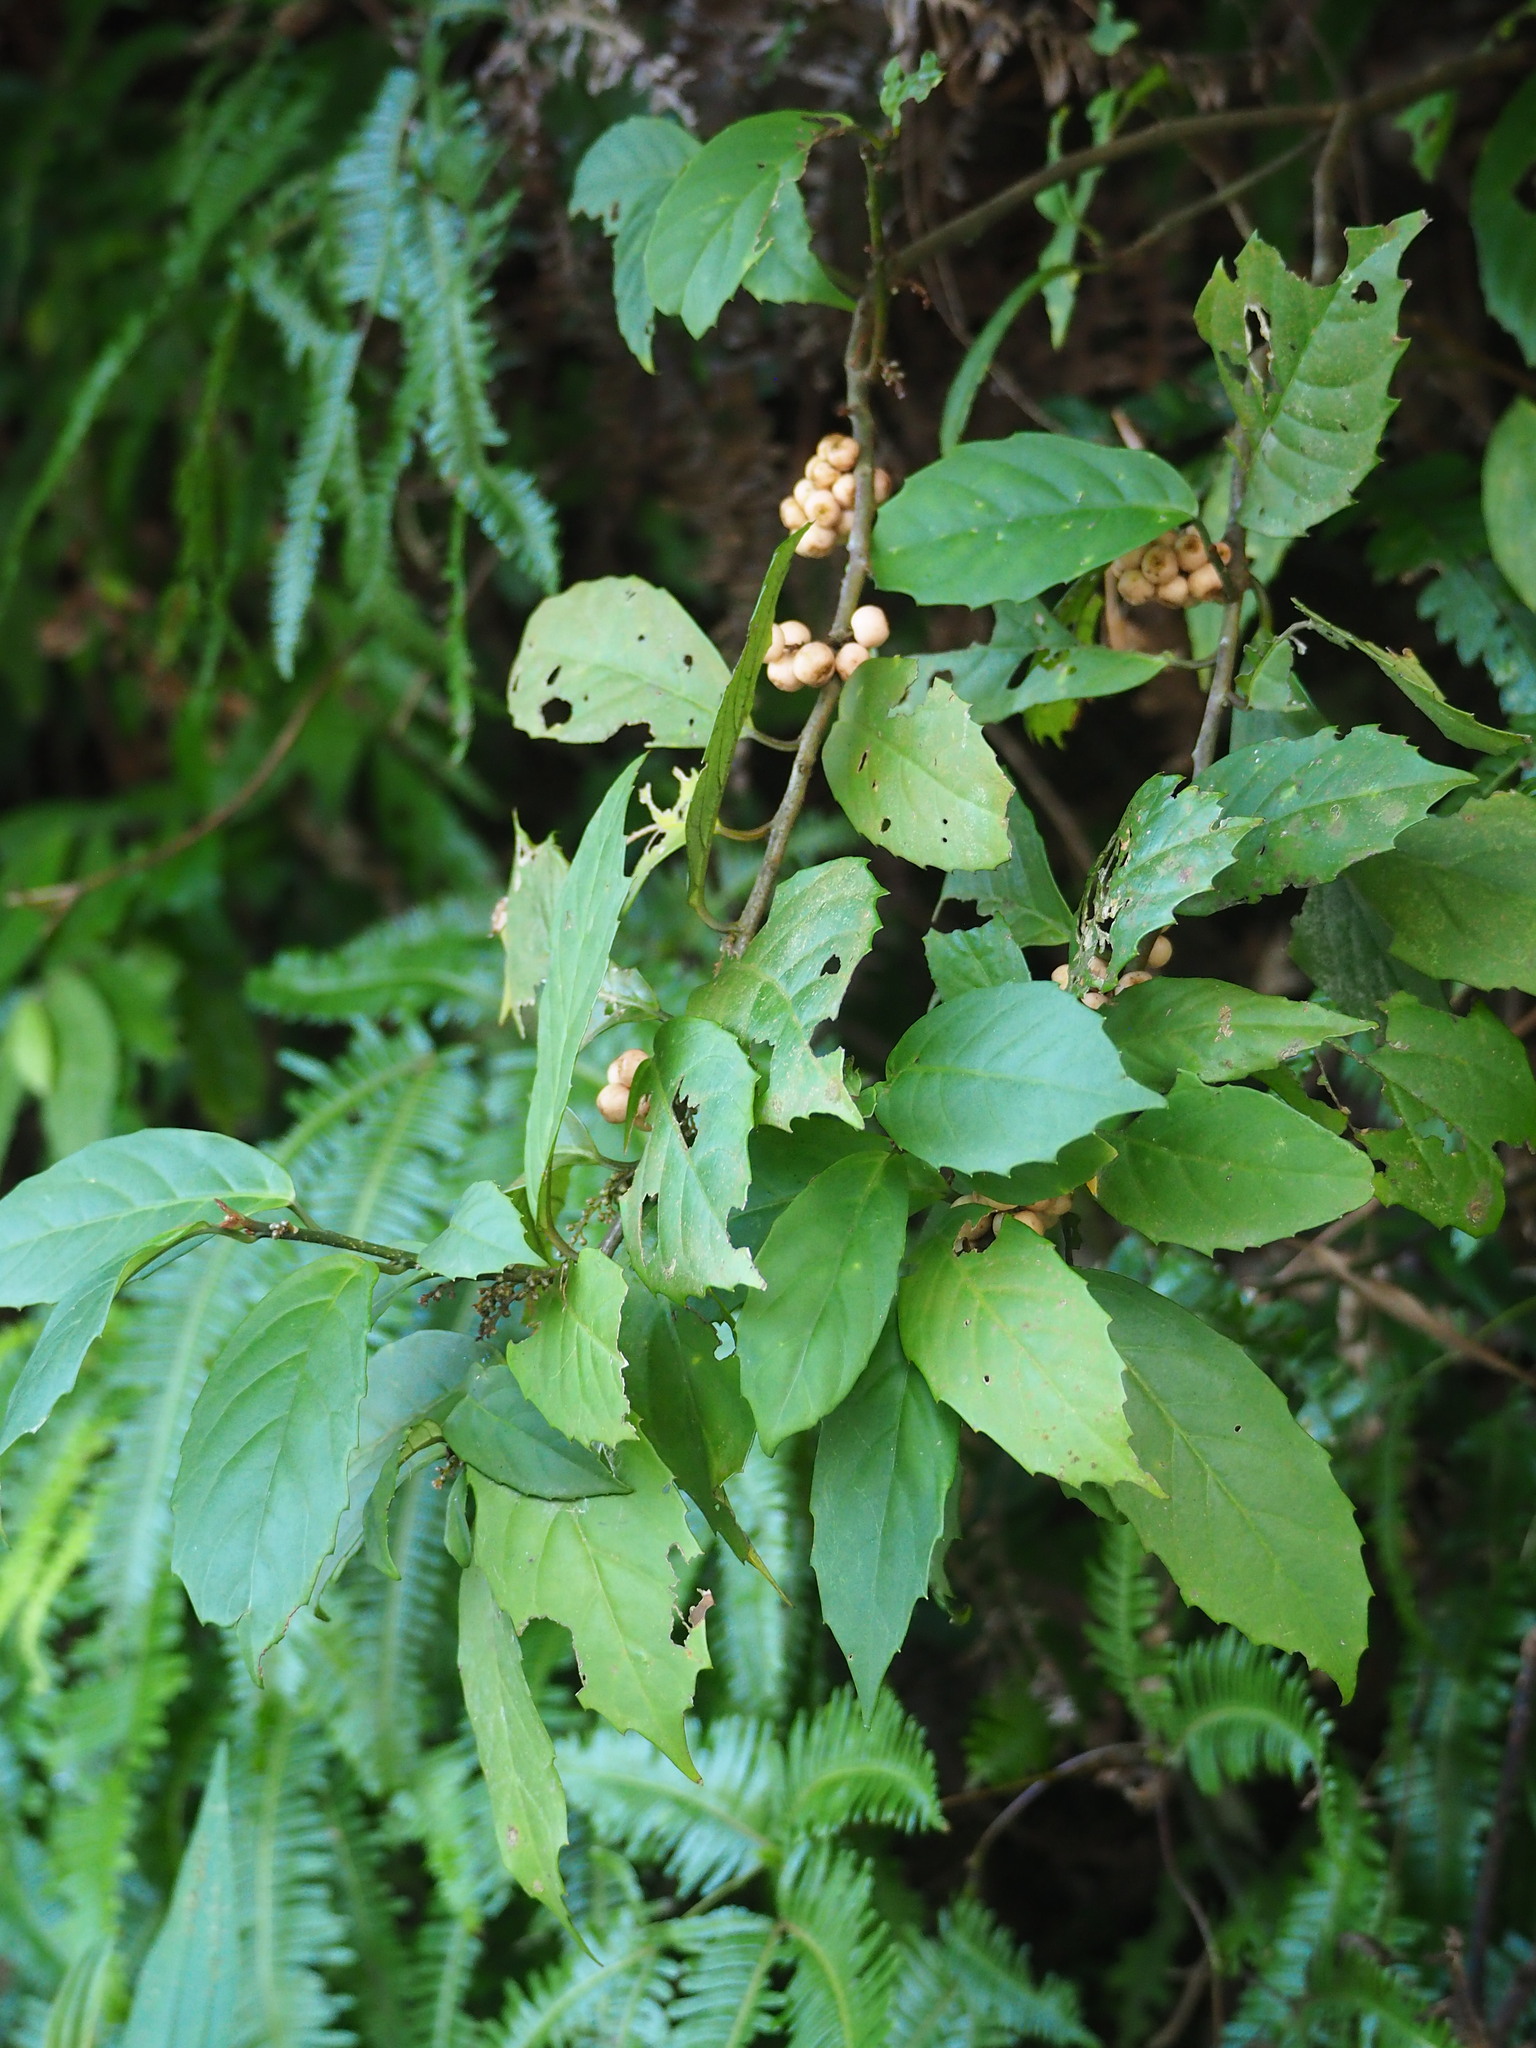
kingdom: Plantae
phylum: Tracheophyta
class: Magnoliopsida
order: Ericales
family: Primulaceae
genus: Maesa
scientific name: Maesa japonica
